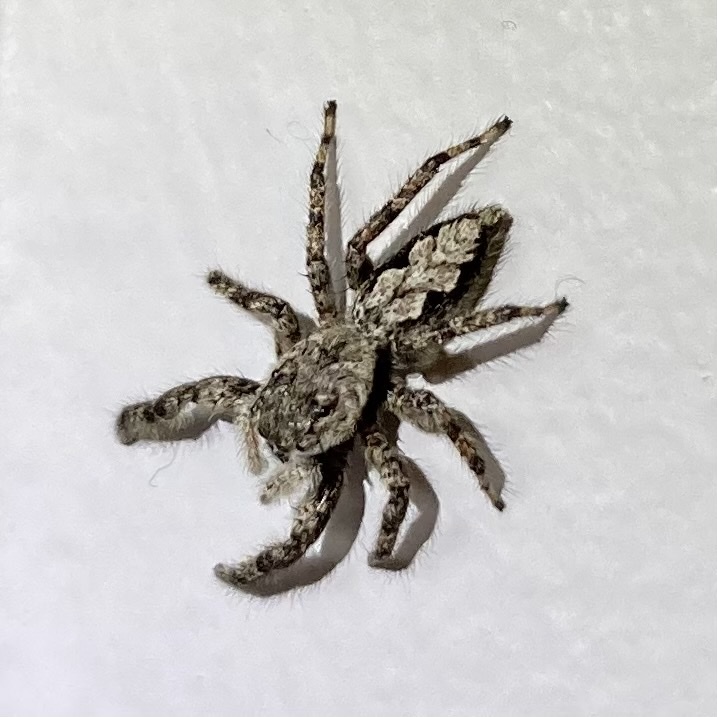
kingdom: Animalia
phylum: Arthropoda
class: Arachnida
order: Araneae
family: Salticidae
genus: Platycryptus
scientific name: Platycryptus undatus
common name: Tan jumping spider
